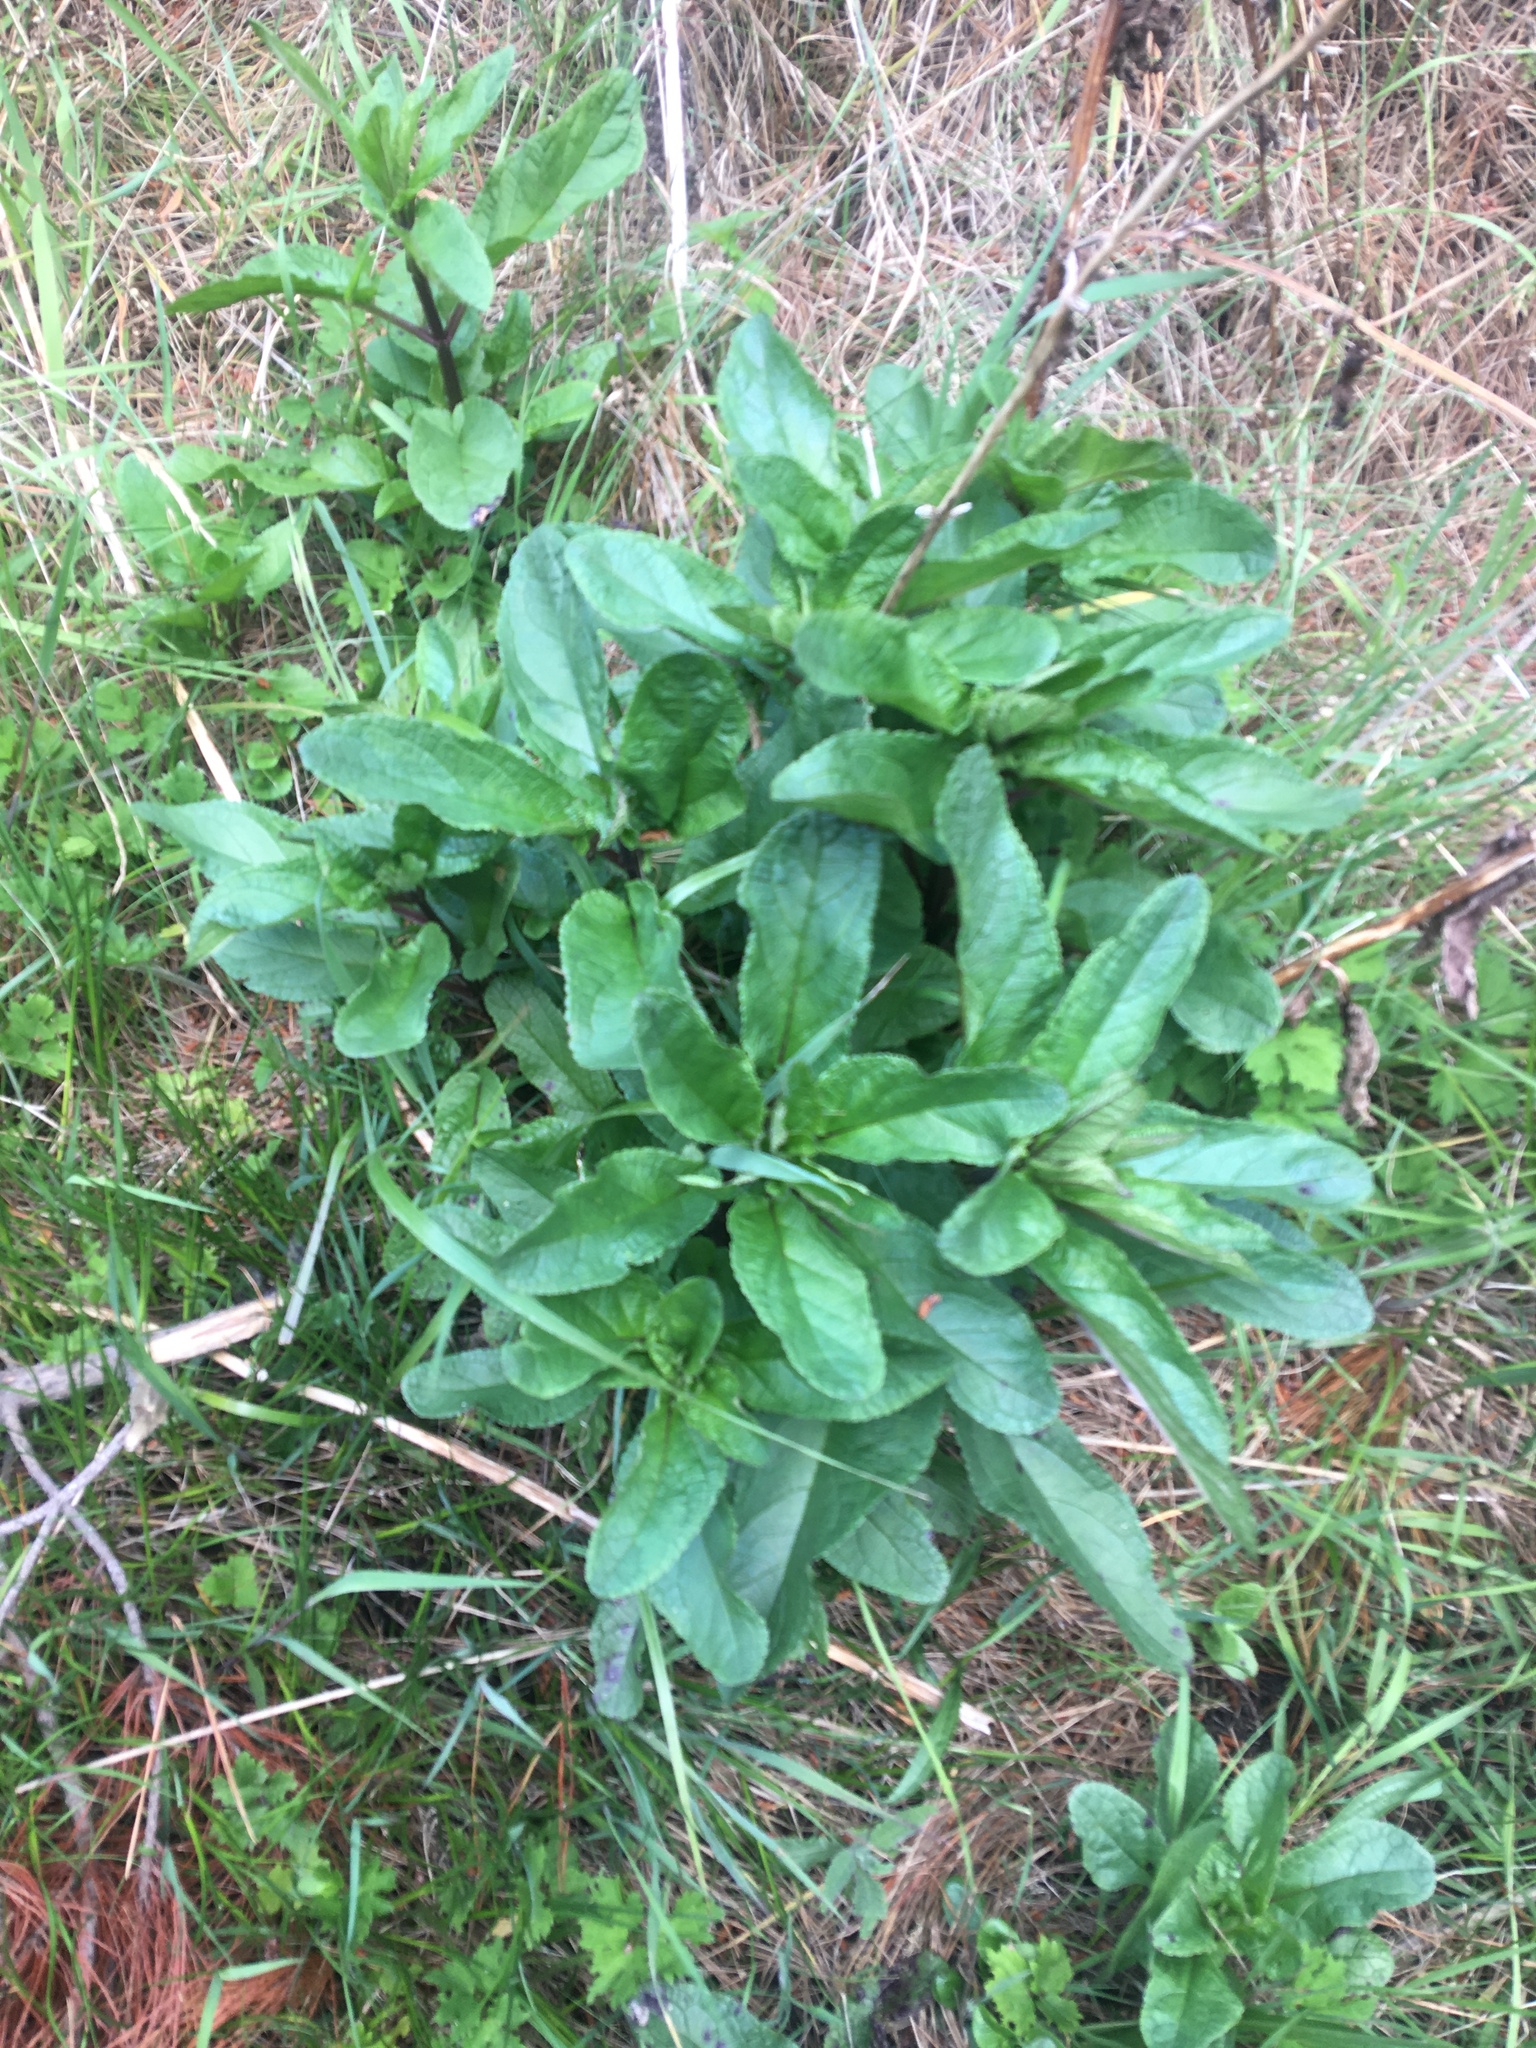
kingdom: Plantae
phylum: Tracheophyta
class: Magnoliopsida
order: Lamiales
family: Scrophulariaceae
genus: Scrophularia
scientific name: Scrophularia auriculata
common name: Water betony
